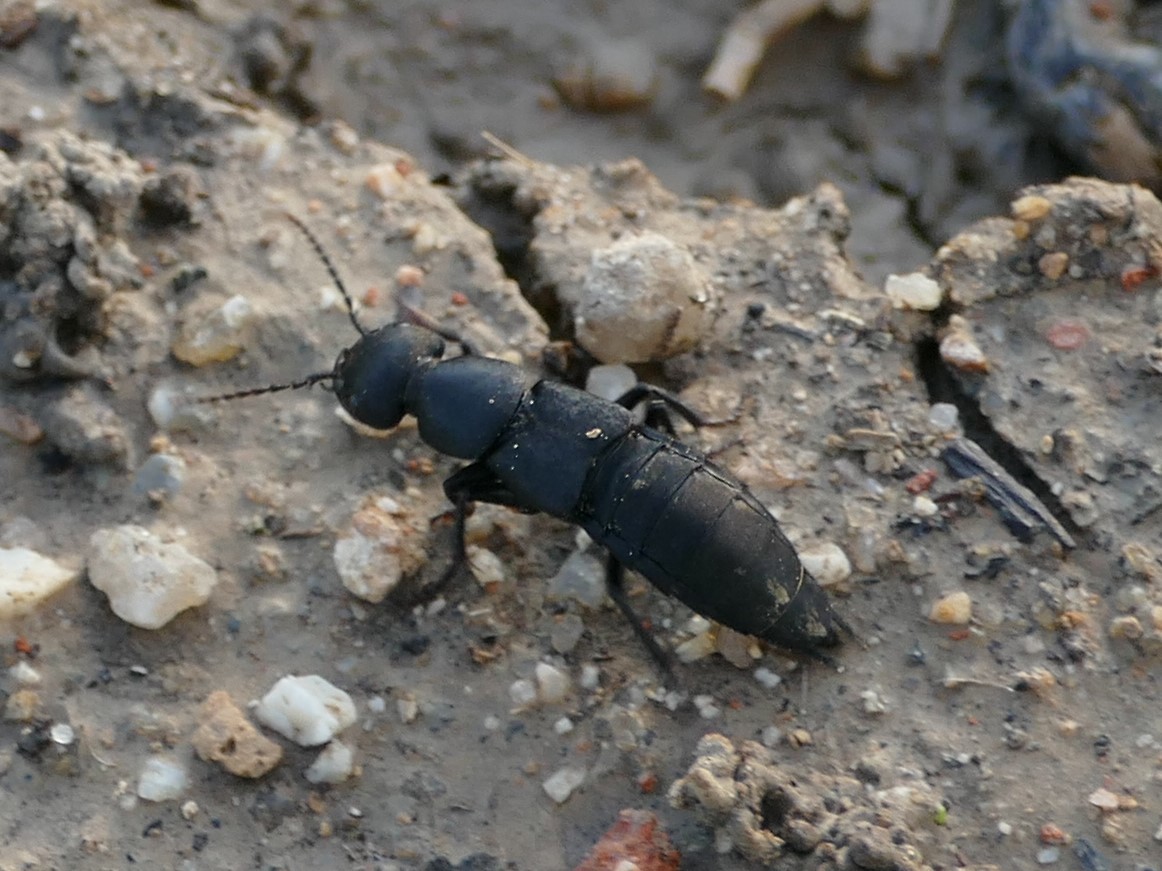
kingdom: Animalia
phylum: Arthropoda
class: Insecta
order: Coleoptera
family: Staphylinidae
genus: Ocypus
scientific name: Ocypus olens
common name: Devil's coach-horse
